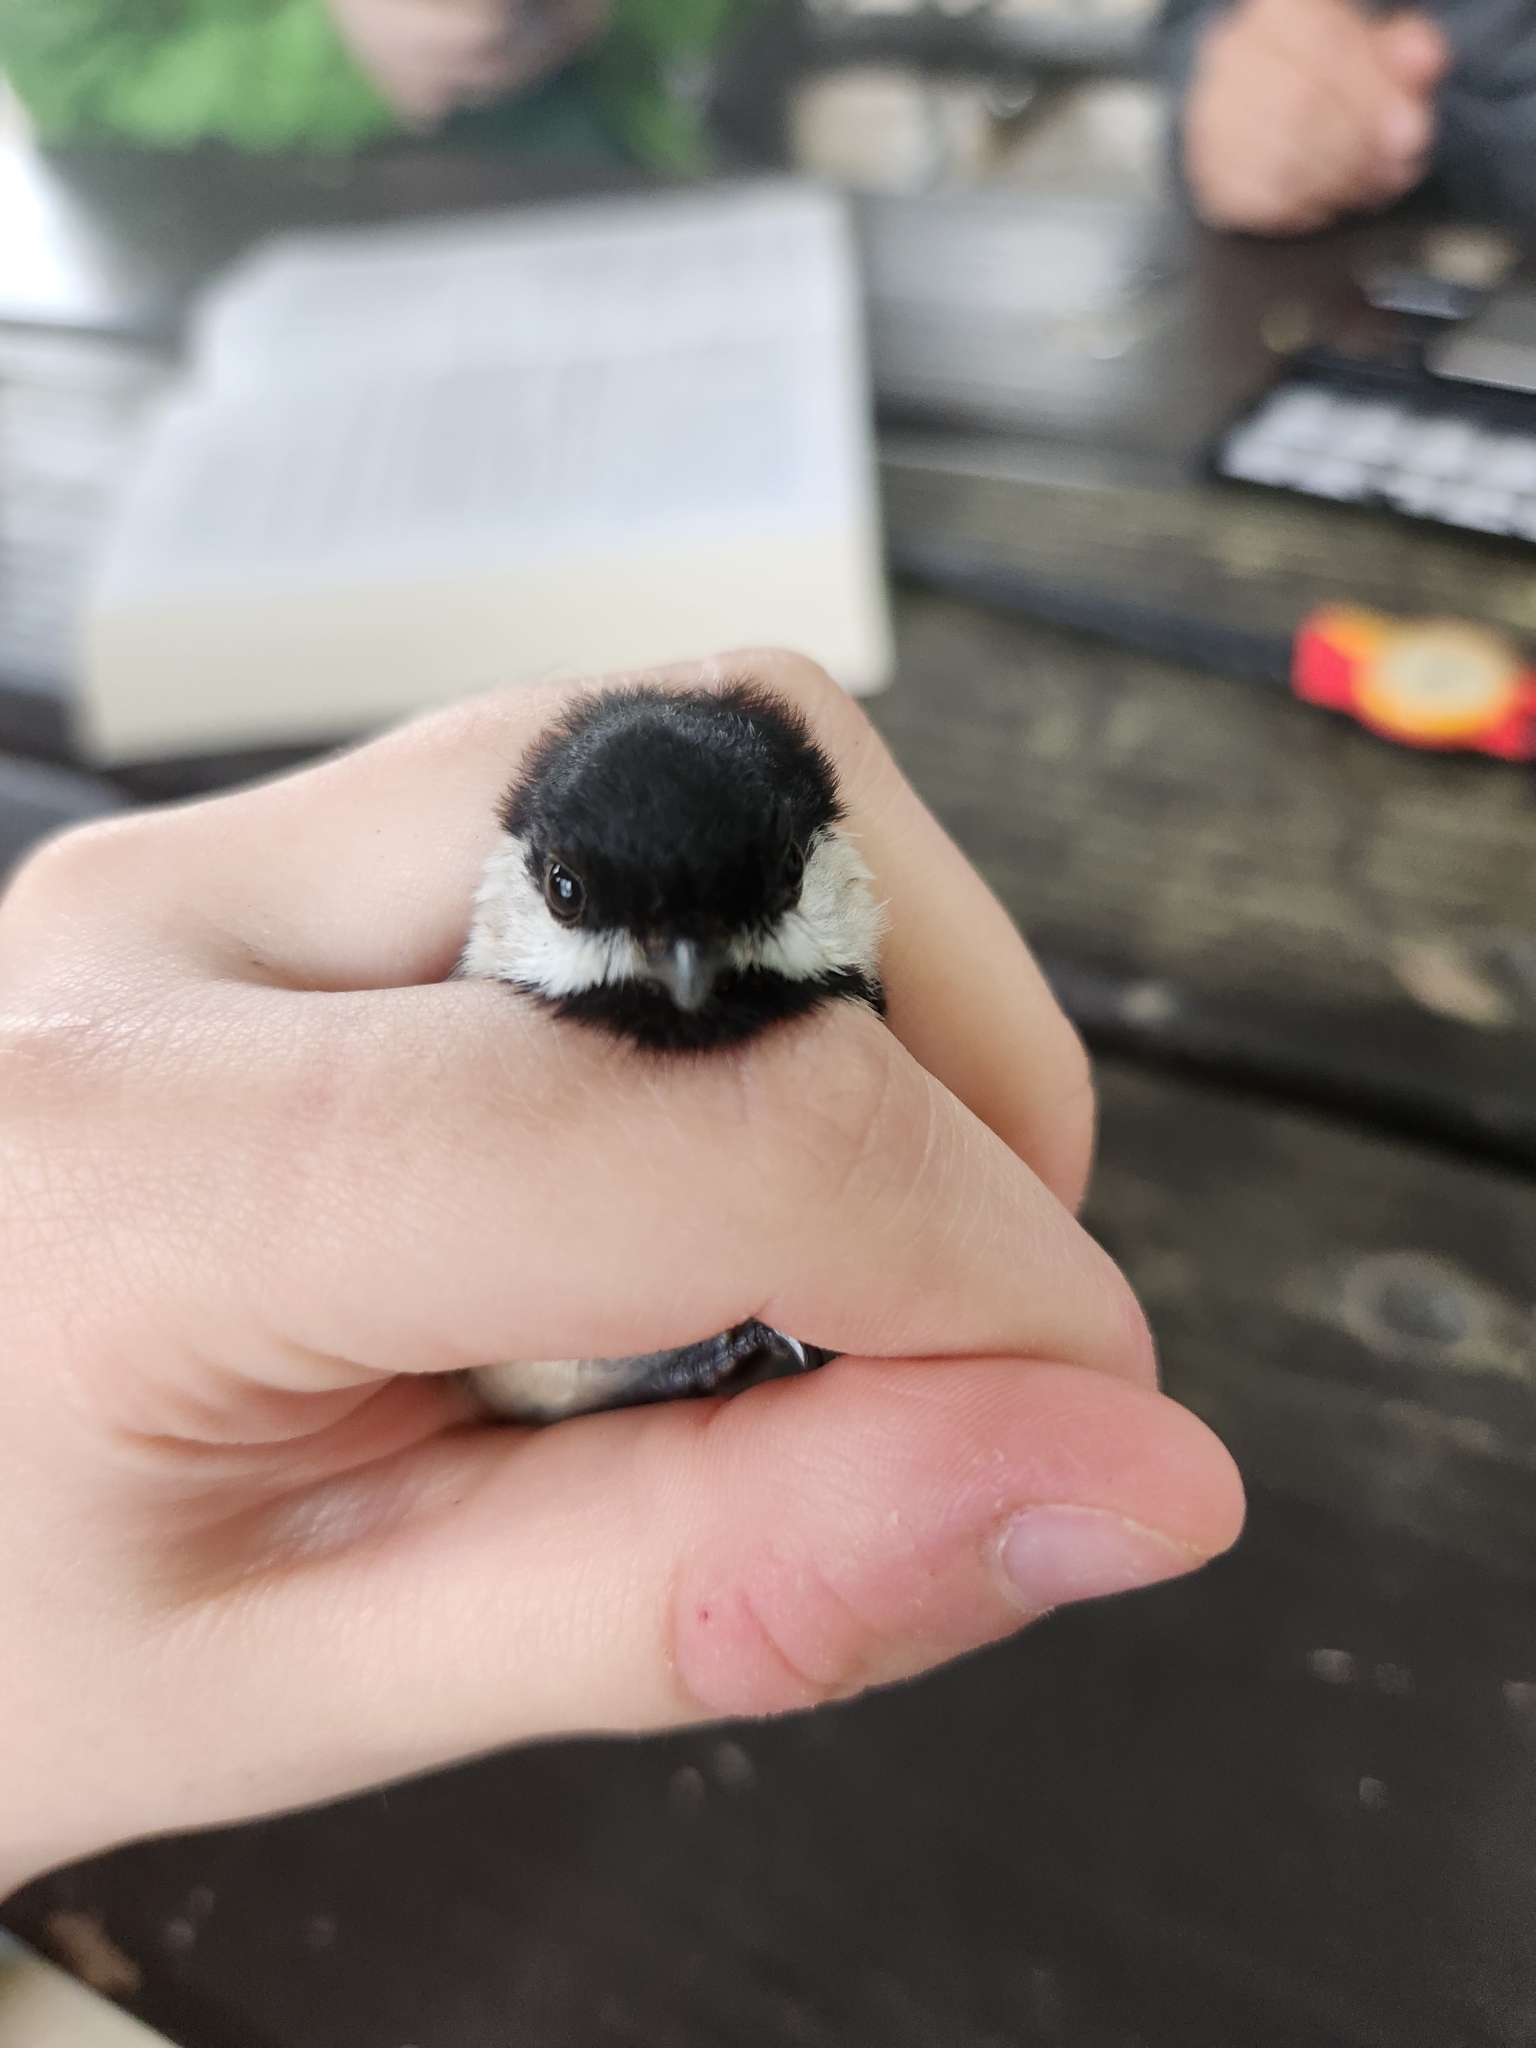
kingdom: Animalia
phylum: Chordata
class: Aves
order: Passeriformes
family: Paridae
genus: Poecile
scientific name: Poecile carolinensis
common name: Carolina chickadee
